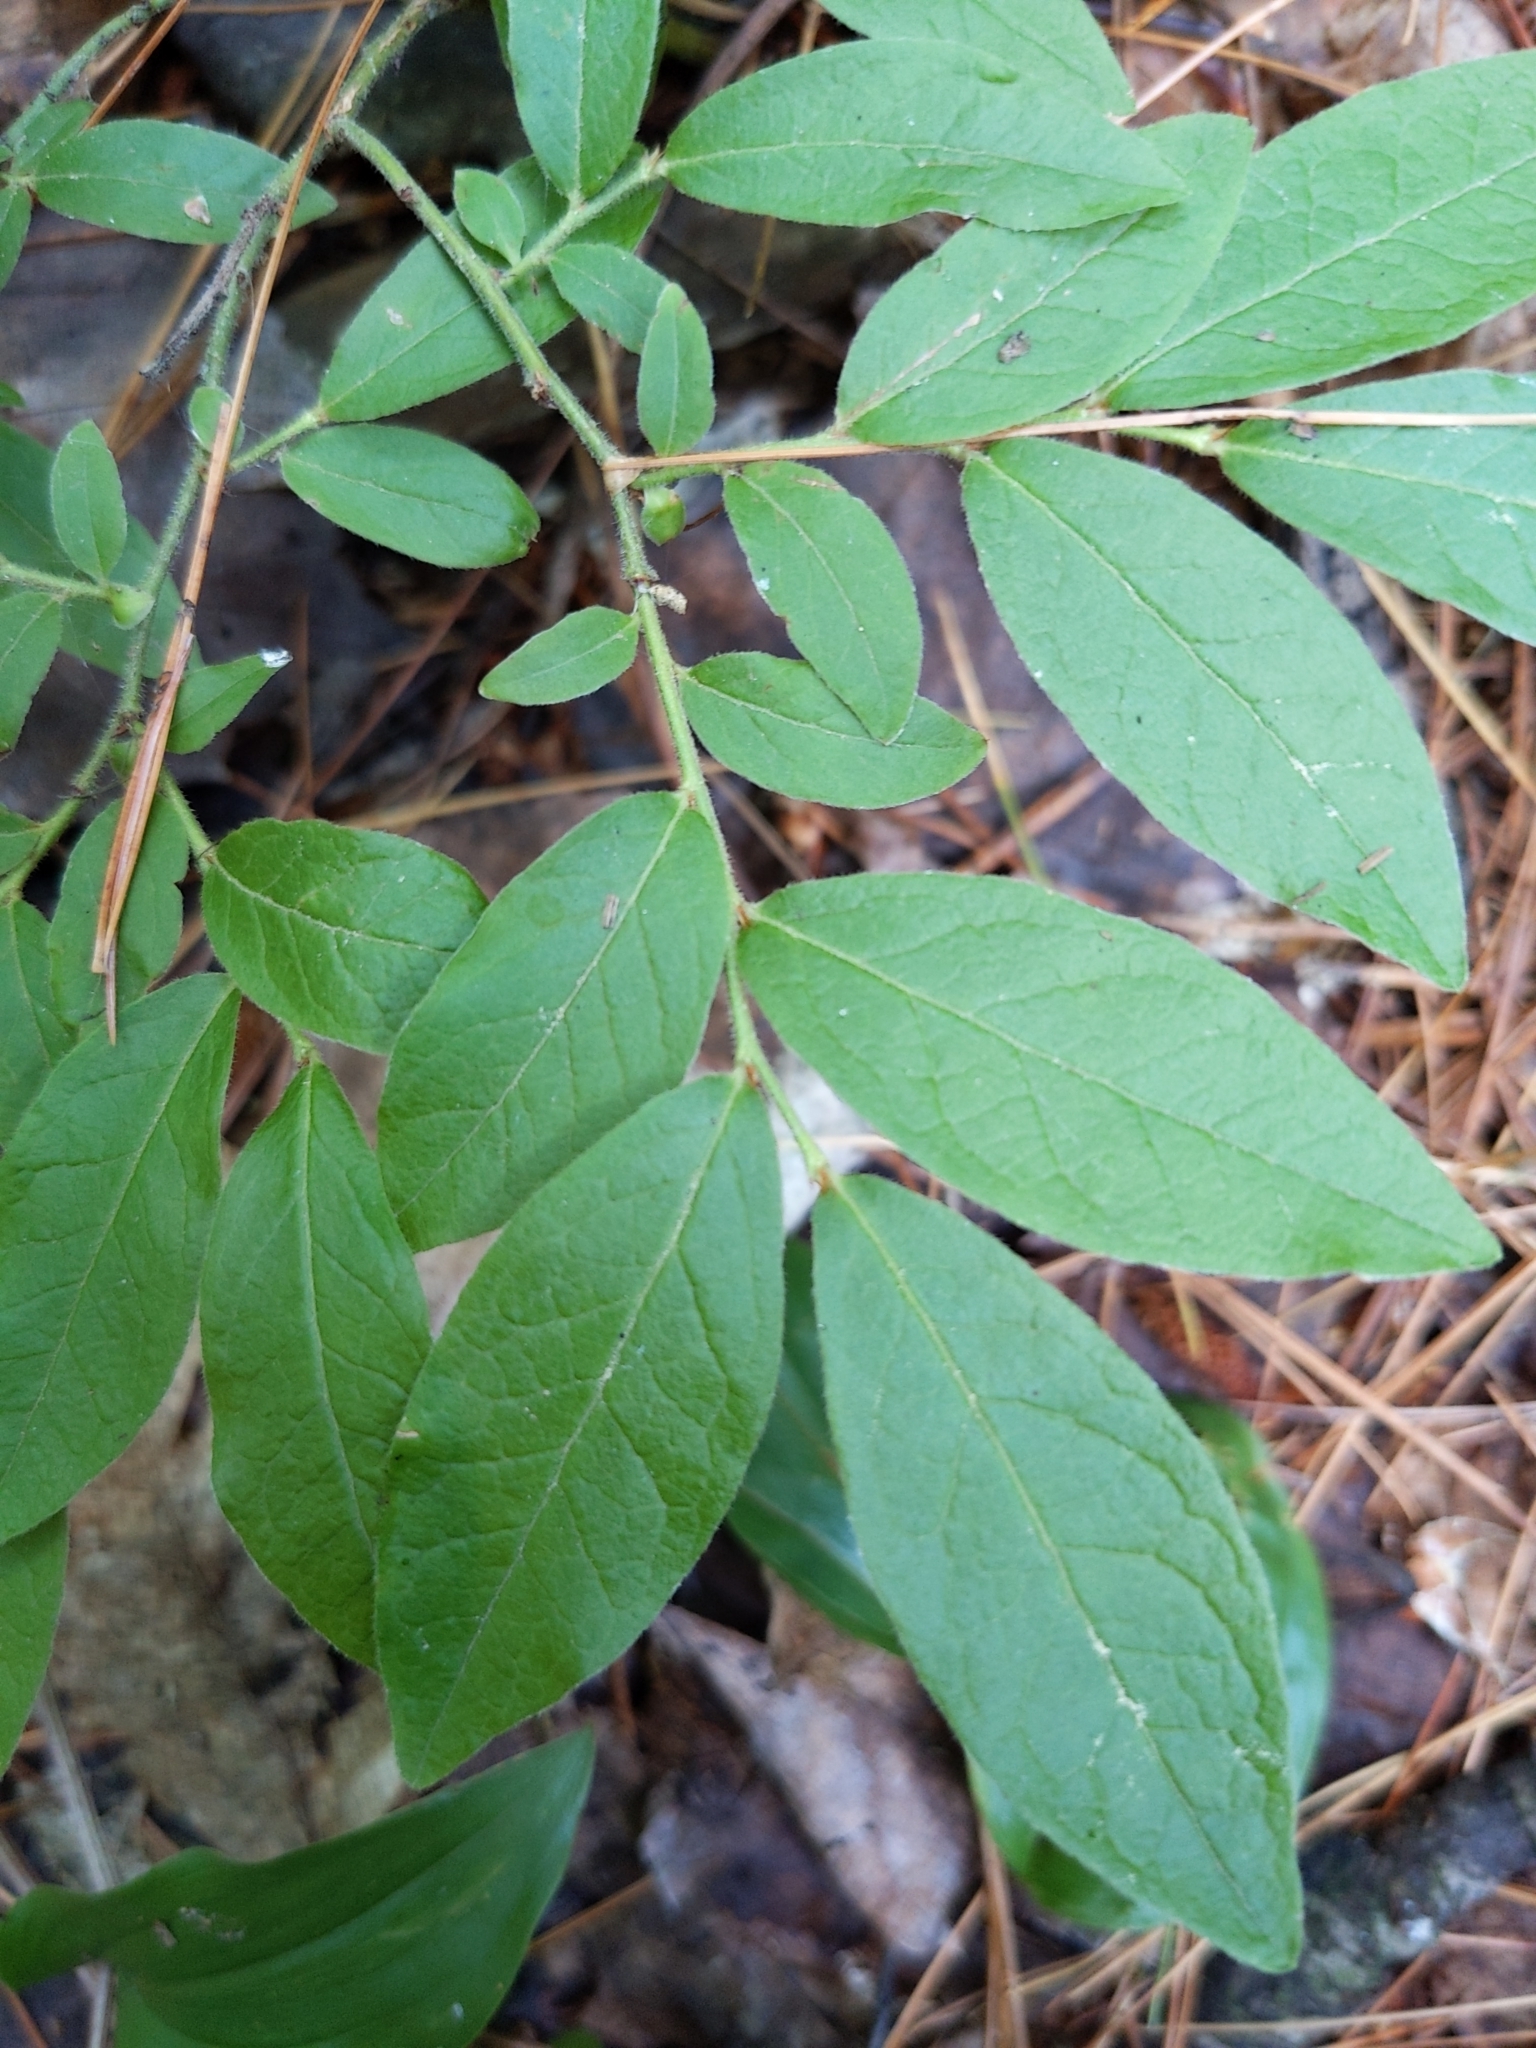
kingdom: Plantae
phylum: Tracheophyta
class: Magnoliopsida
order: Ericales
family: Ericaceae
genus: Vaccinium
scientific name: Vaccinium myrtilloides
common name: Canada blueberry
